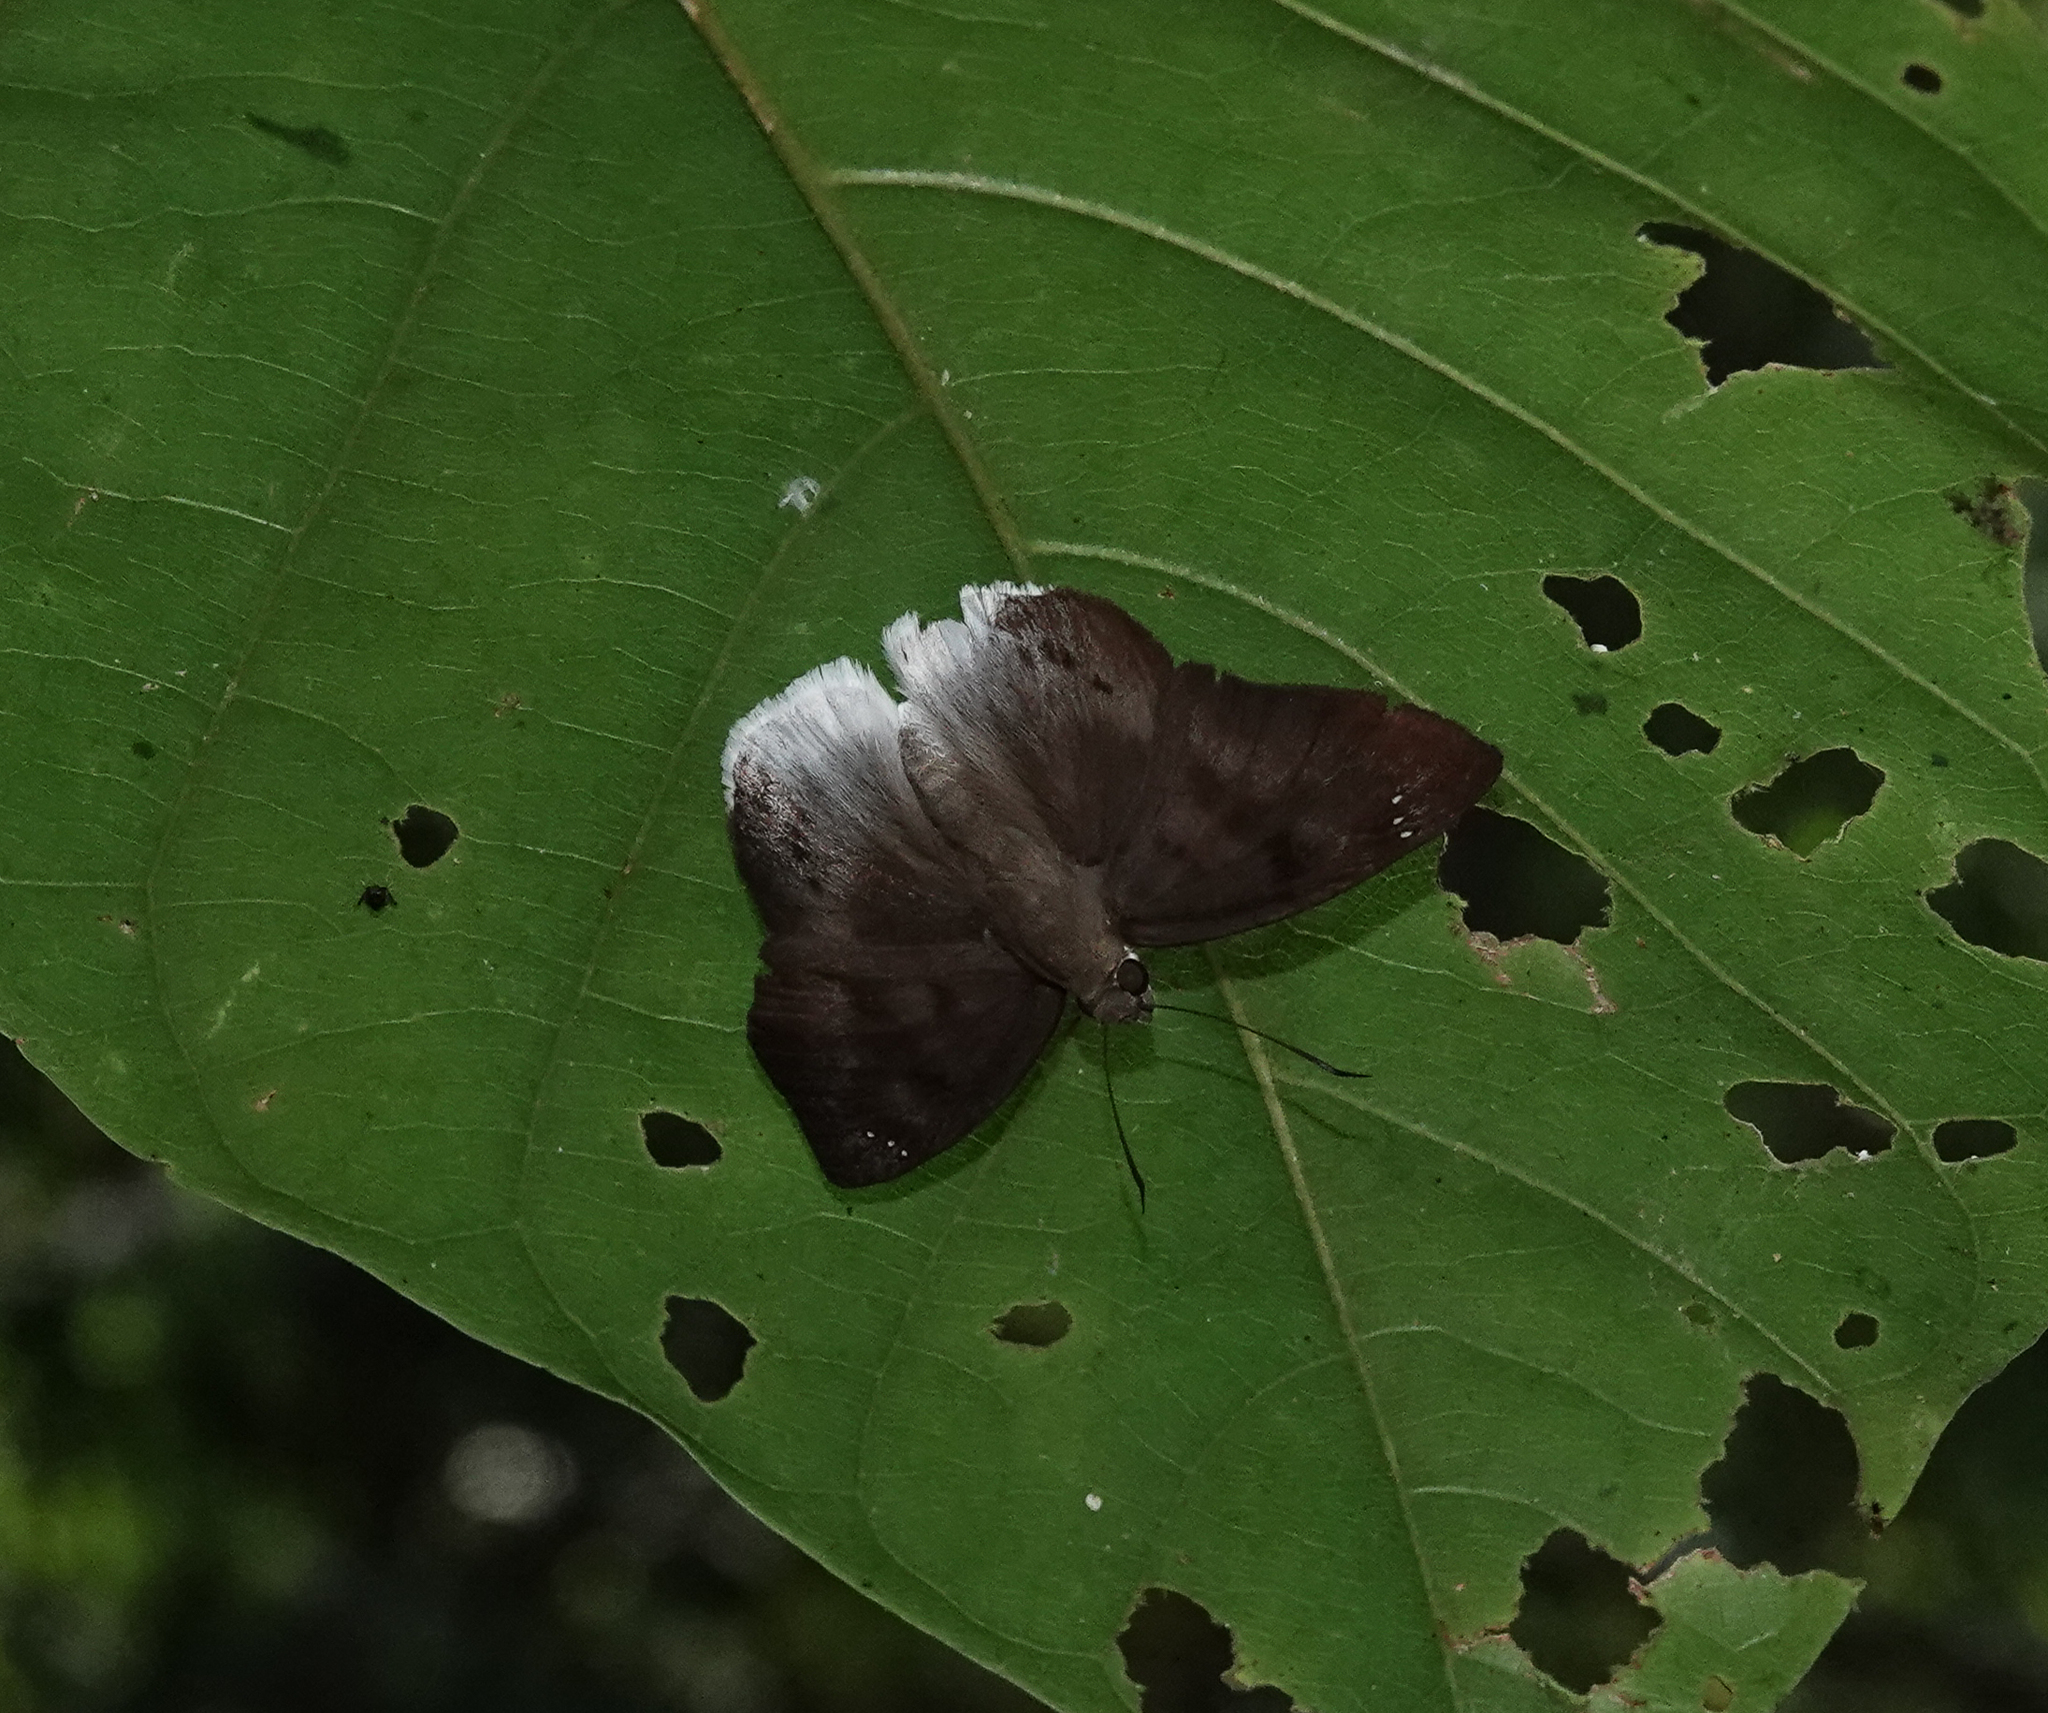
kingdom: Animalia
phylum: Arthropoda
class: Insecta
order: Lepidoptera
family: Hesperiidae
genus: Tagiades
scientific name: Tagiades gana
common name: Suffused snow flat
